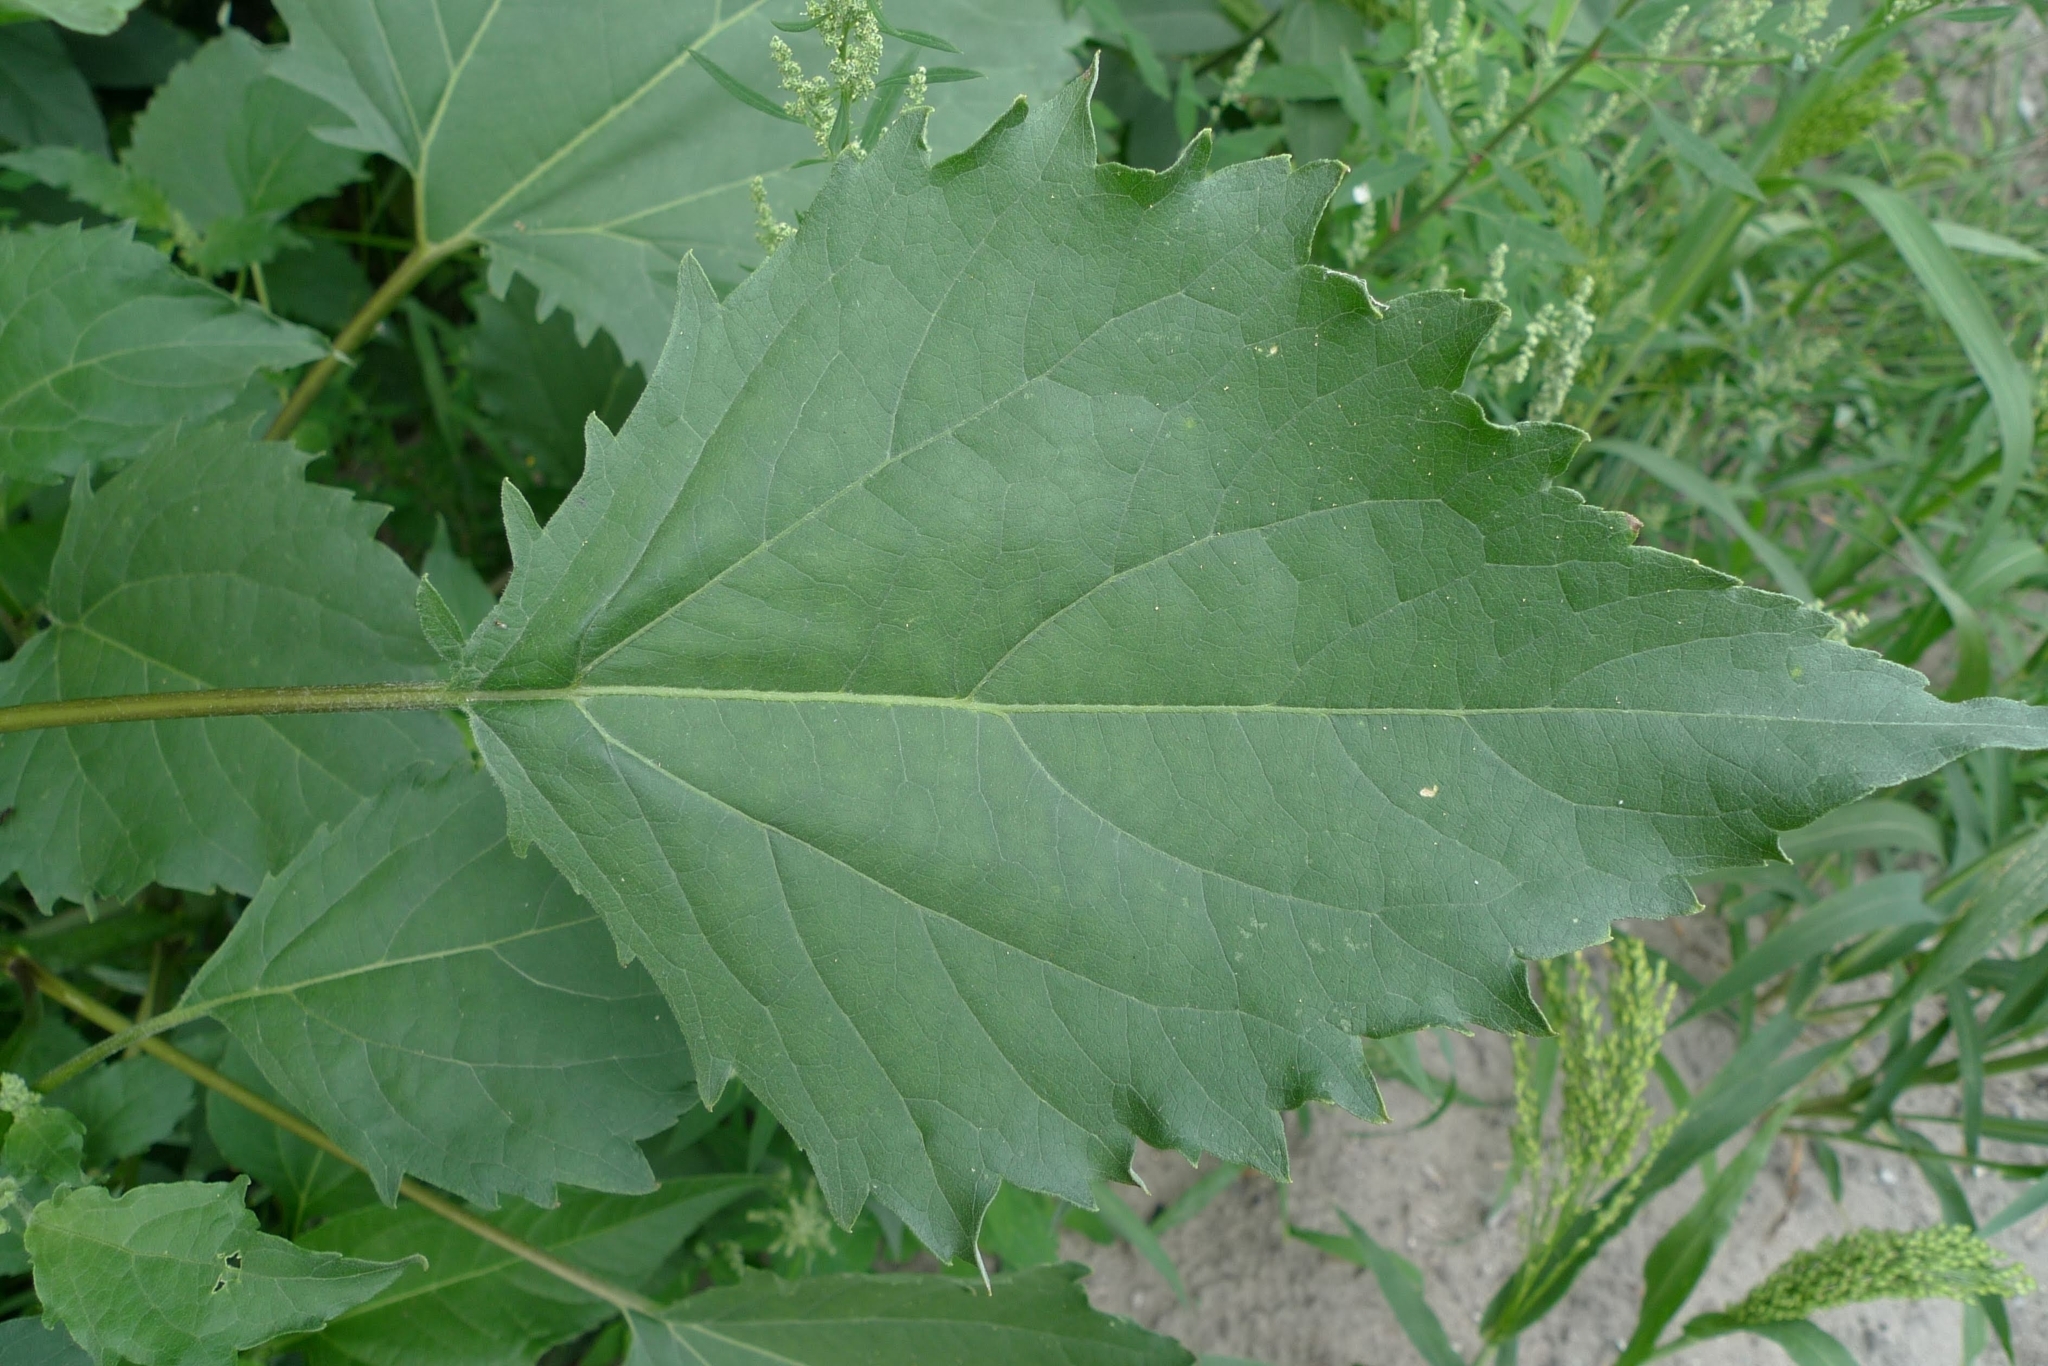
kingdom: Plantae
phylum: Tracheophyta
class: Magnoliopsida
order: Asterales
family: Asteraceae
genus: Cyclachaena
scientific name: Cyclachaena xanthiifolia
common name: Giant sumpweed
